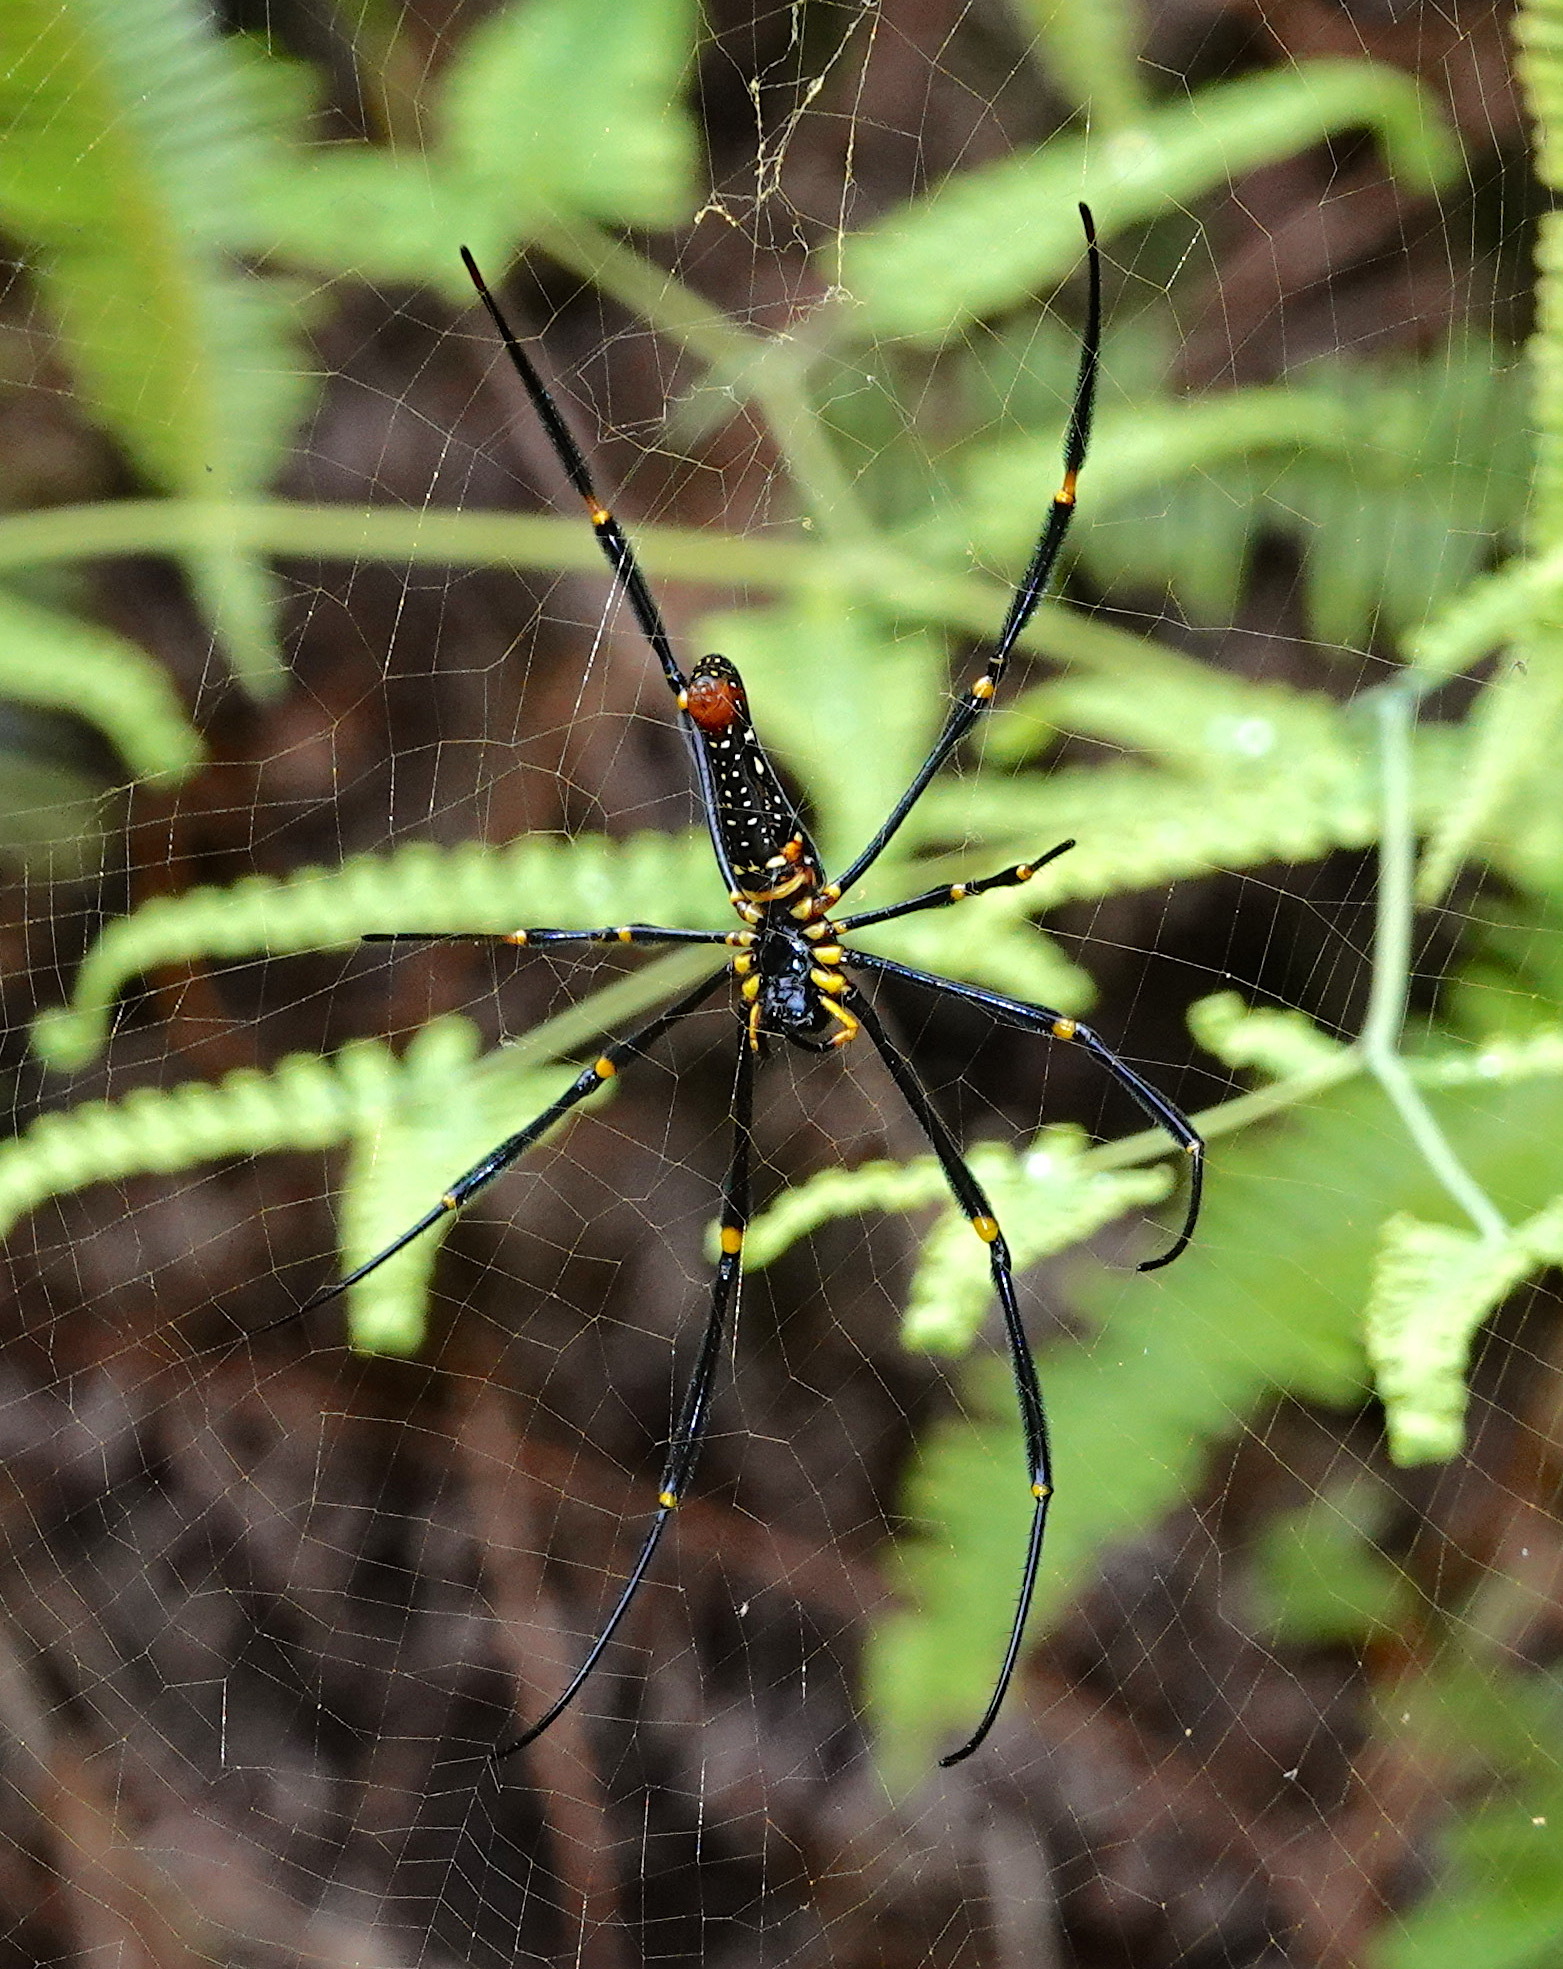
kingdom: Animalia
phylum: Arthropoda
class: Arachnida
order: Araneae
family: Araneidae
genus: Nephila
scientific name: Nephila pilipes
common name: Giant golden orb weaver
